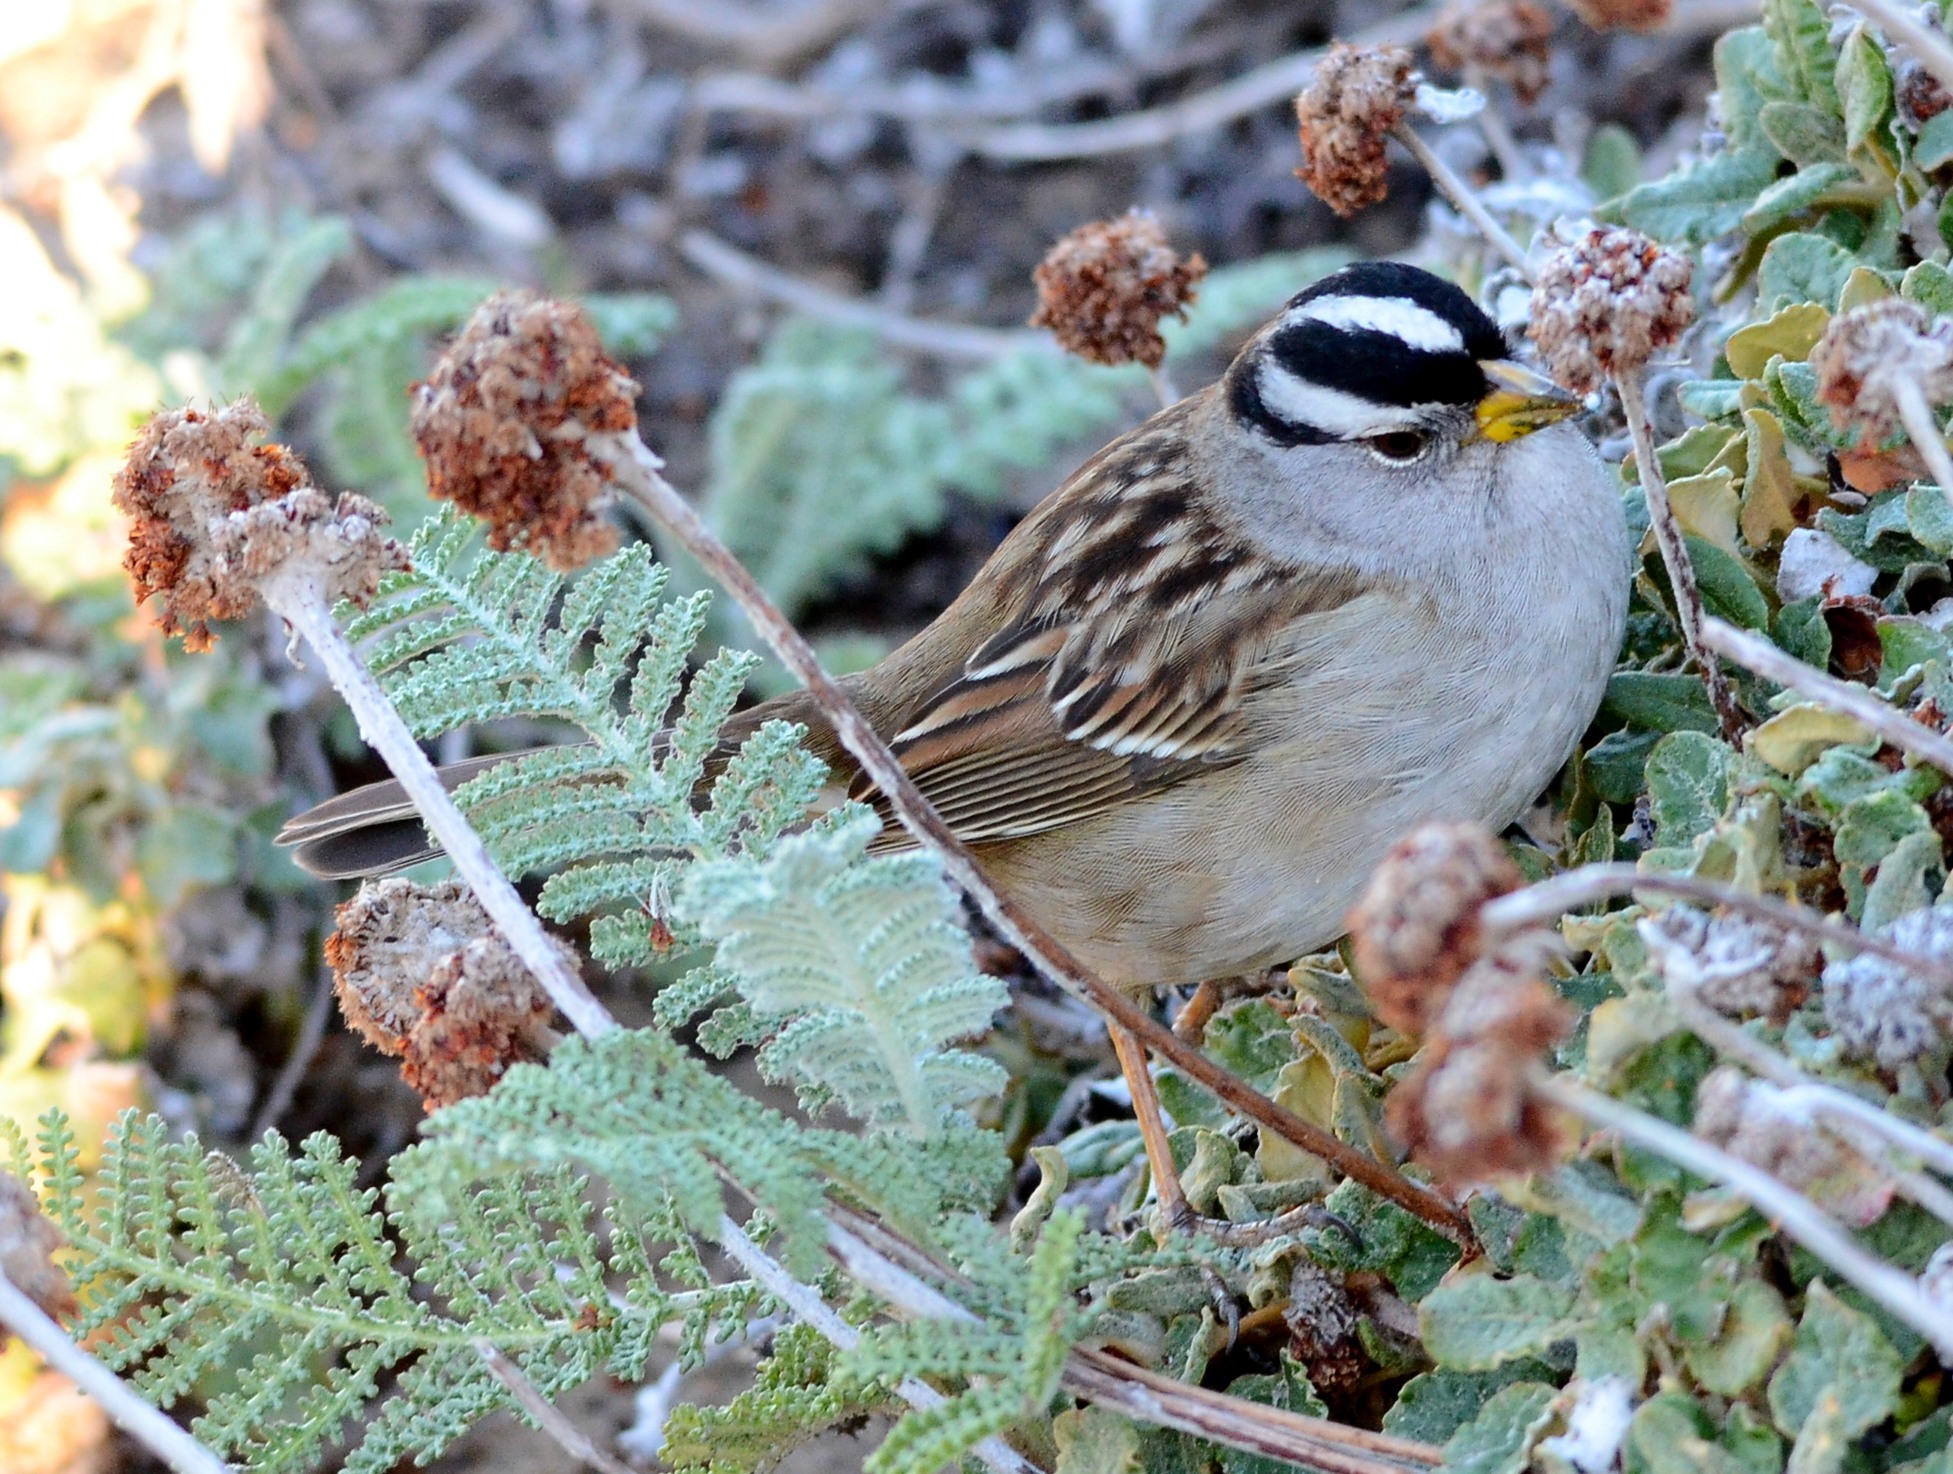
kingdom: Animalia
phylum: Chordata
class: Aves
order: Passeriformes
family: Passerellidae
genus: Zonotrichia
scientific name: Zonotrichia leucophrys
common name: White-crowned sparrow
